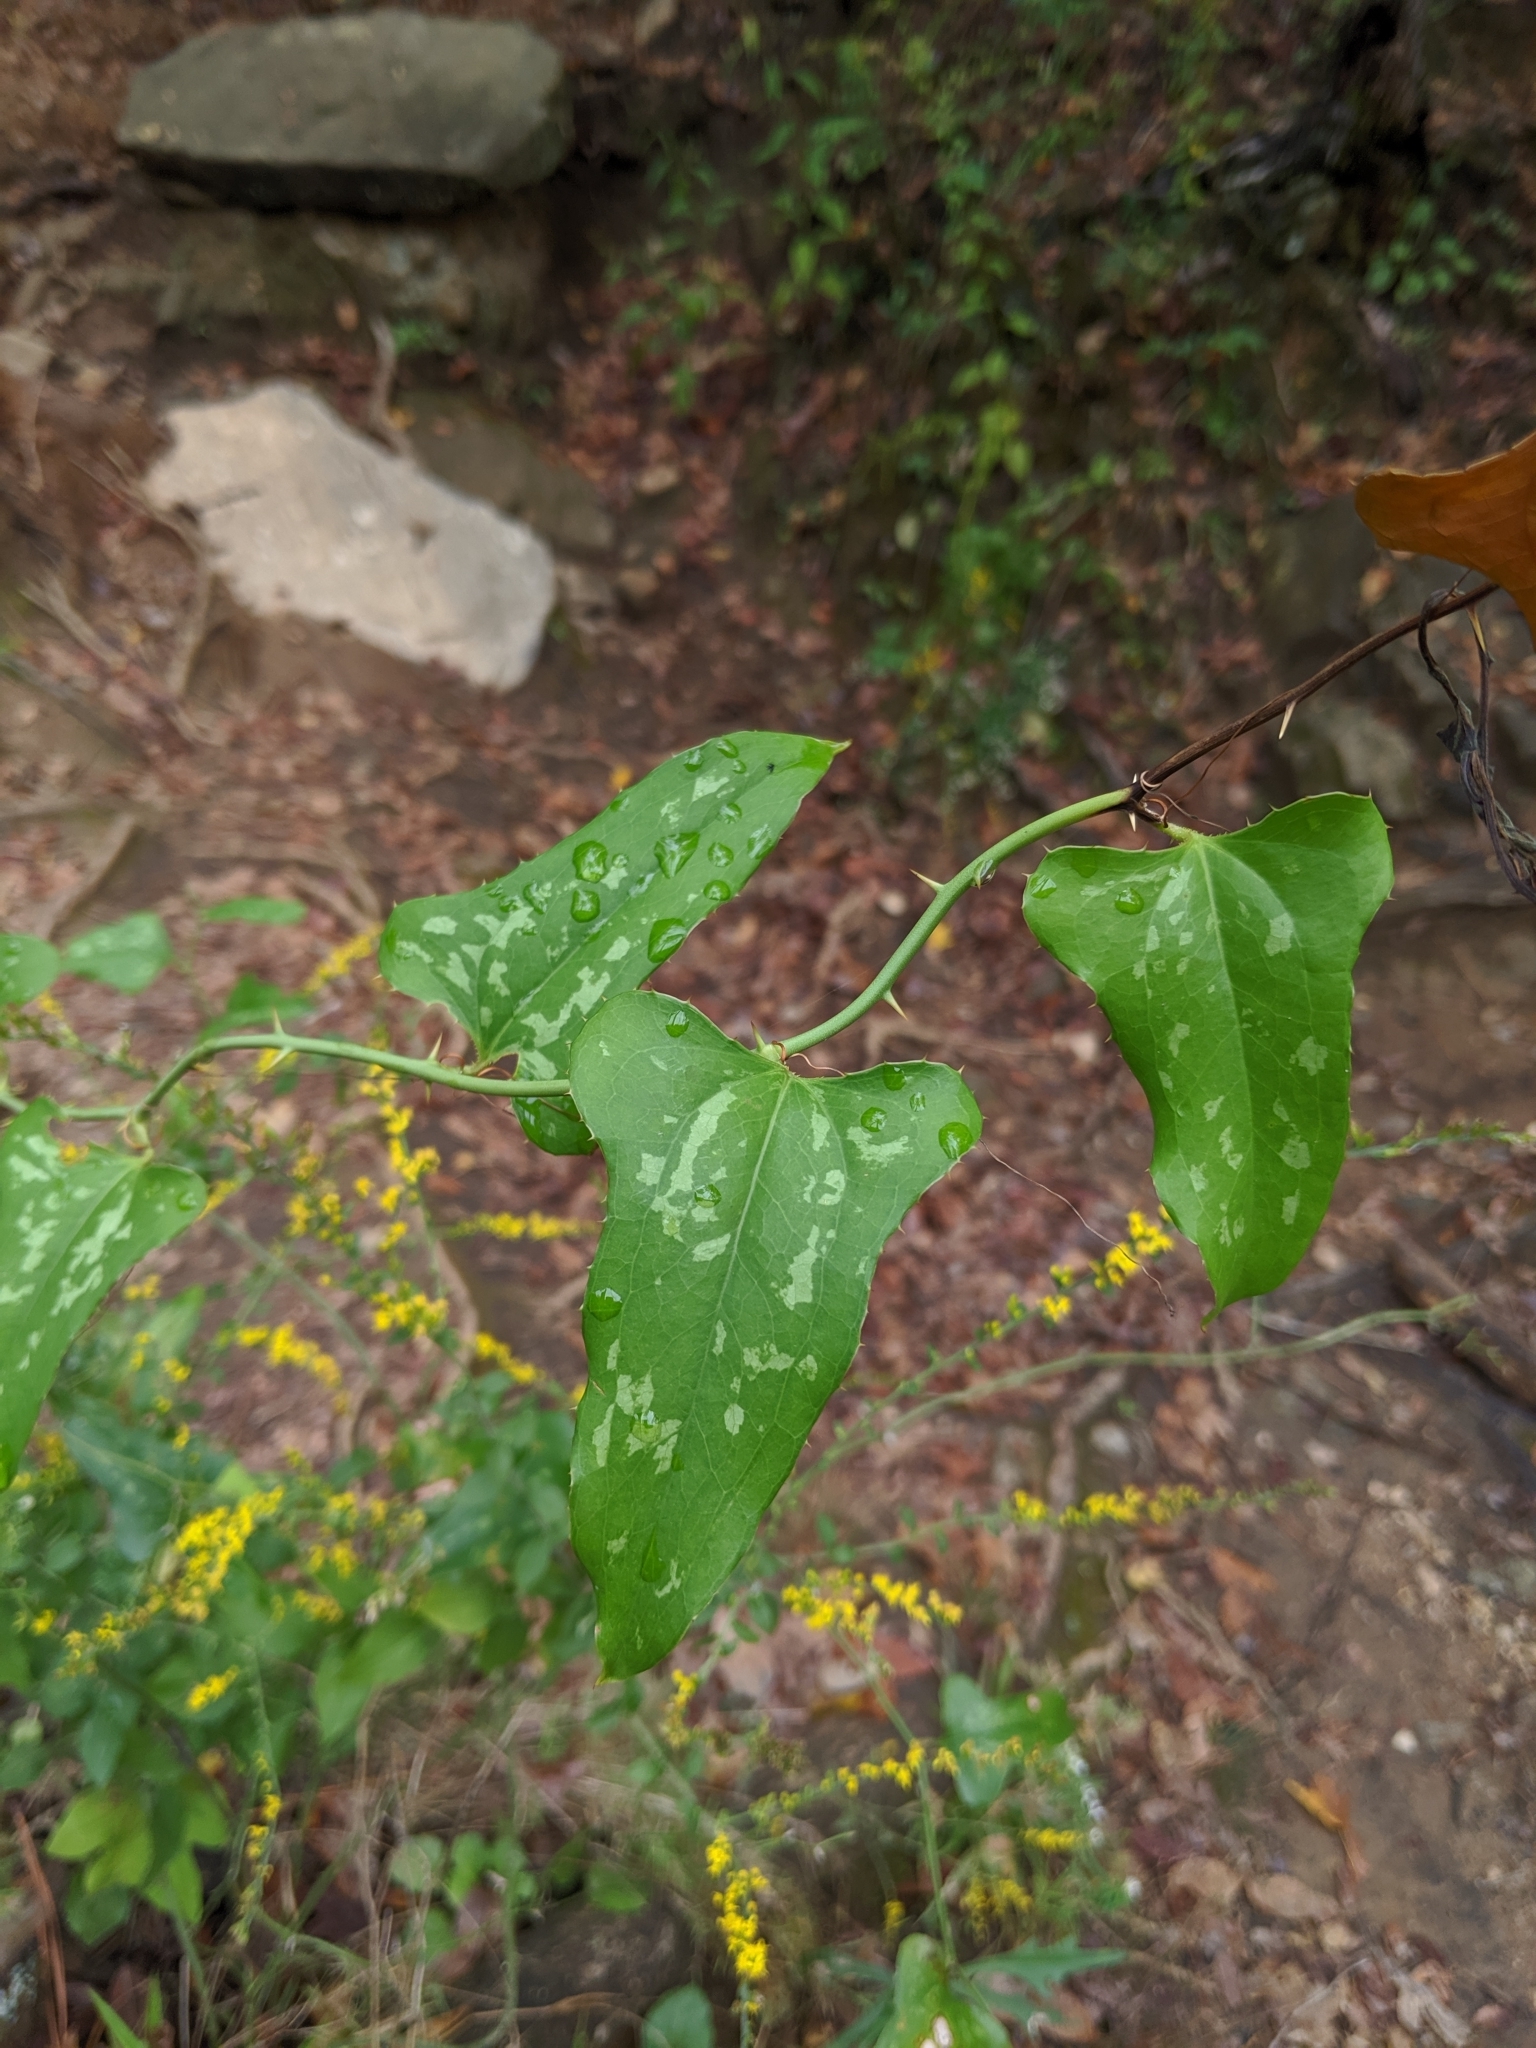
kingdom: Plantae
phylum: Tracheophyta
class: Liliopsida
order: Liliales
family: Smilacaceae
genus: Smilax
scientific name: Smilax bona-nox
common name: Catbrier
